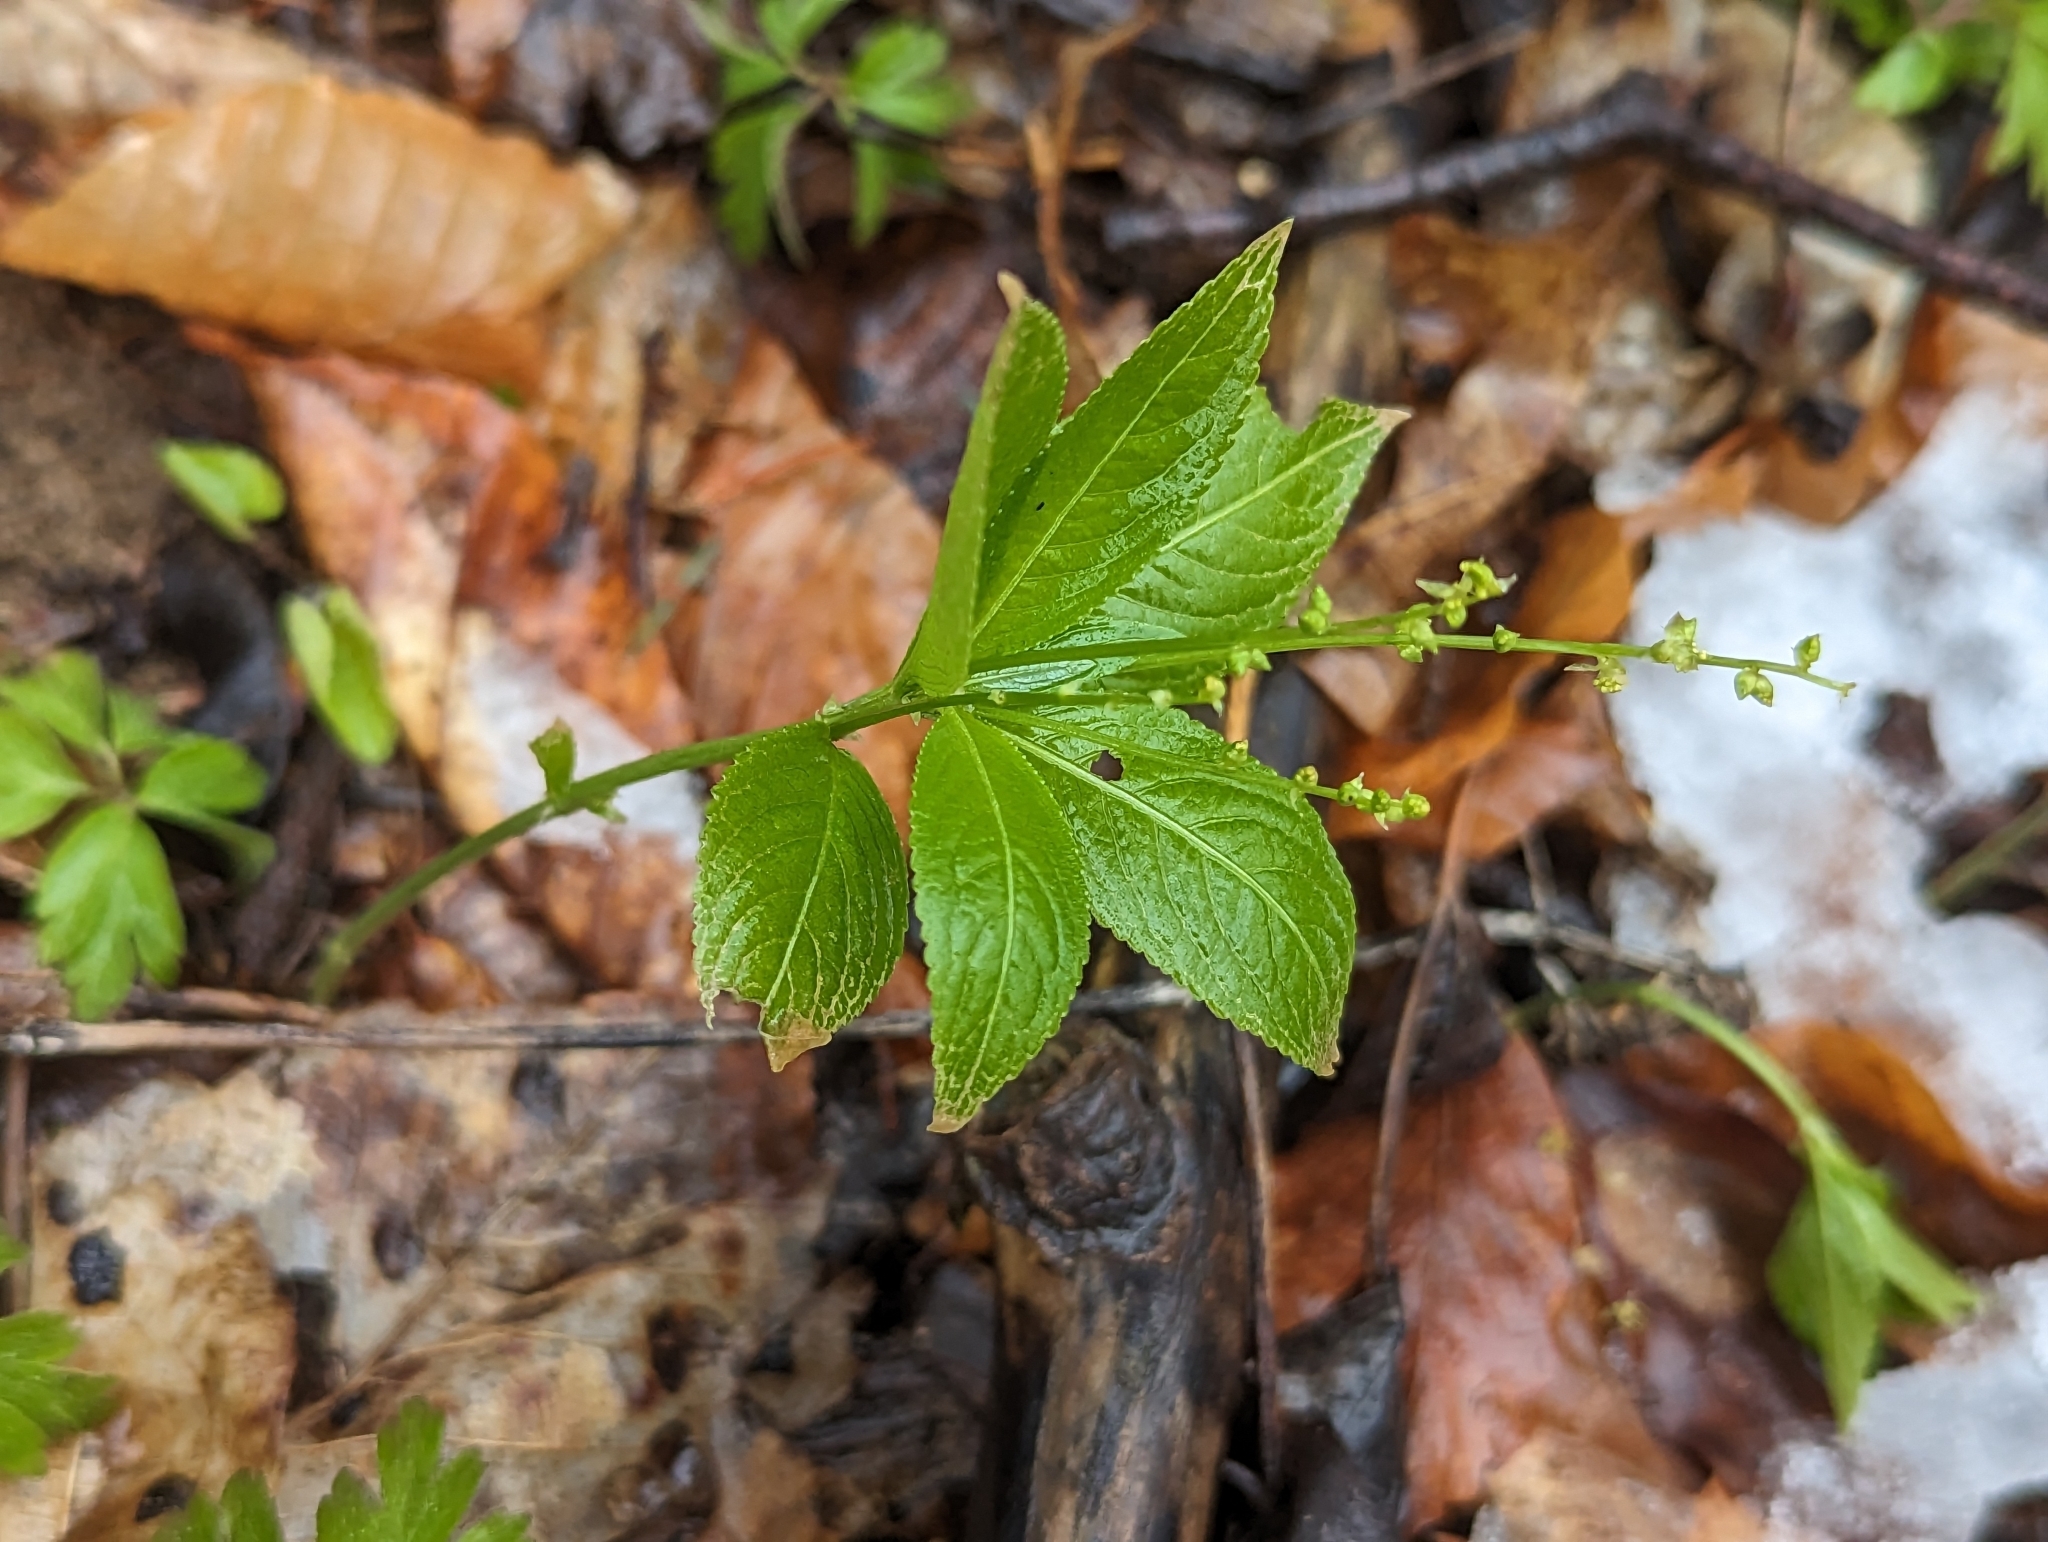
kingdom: Plantae
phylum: Tracheophyta
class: Magnoliopsida
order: Malpighiales
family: Euphorbiaceae
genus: Mercurialis
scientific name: Mercurialis perennis
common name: Dog mercury
